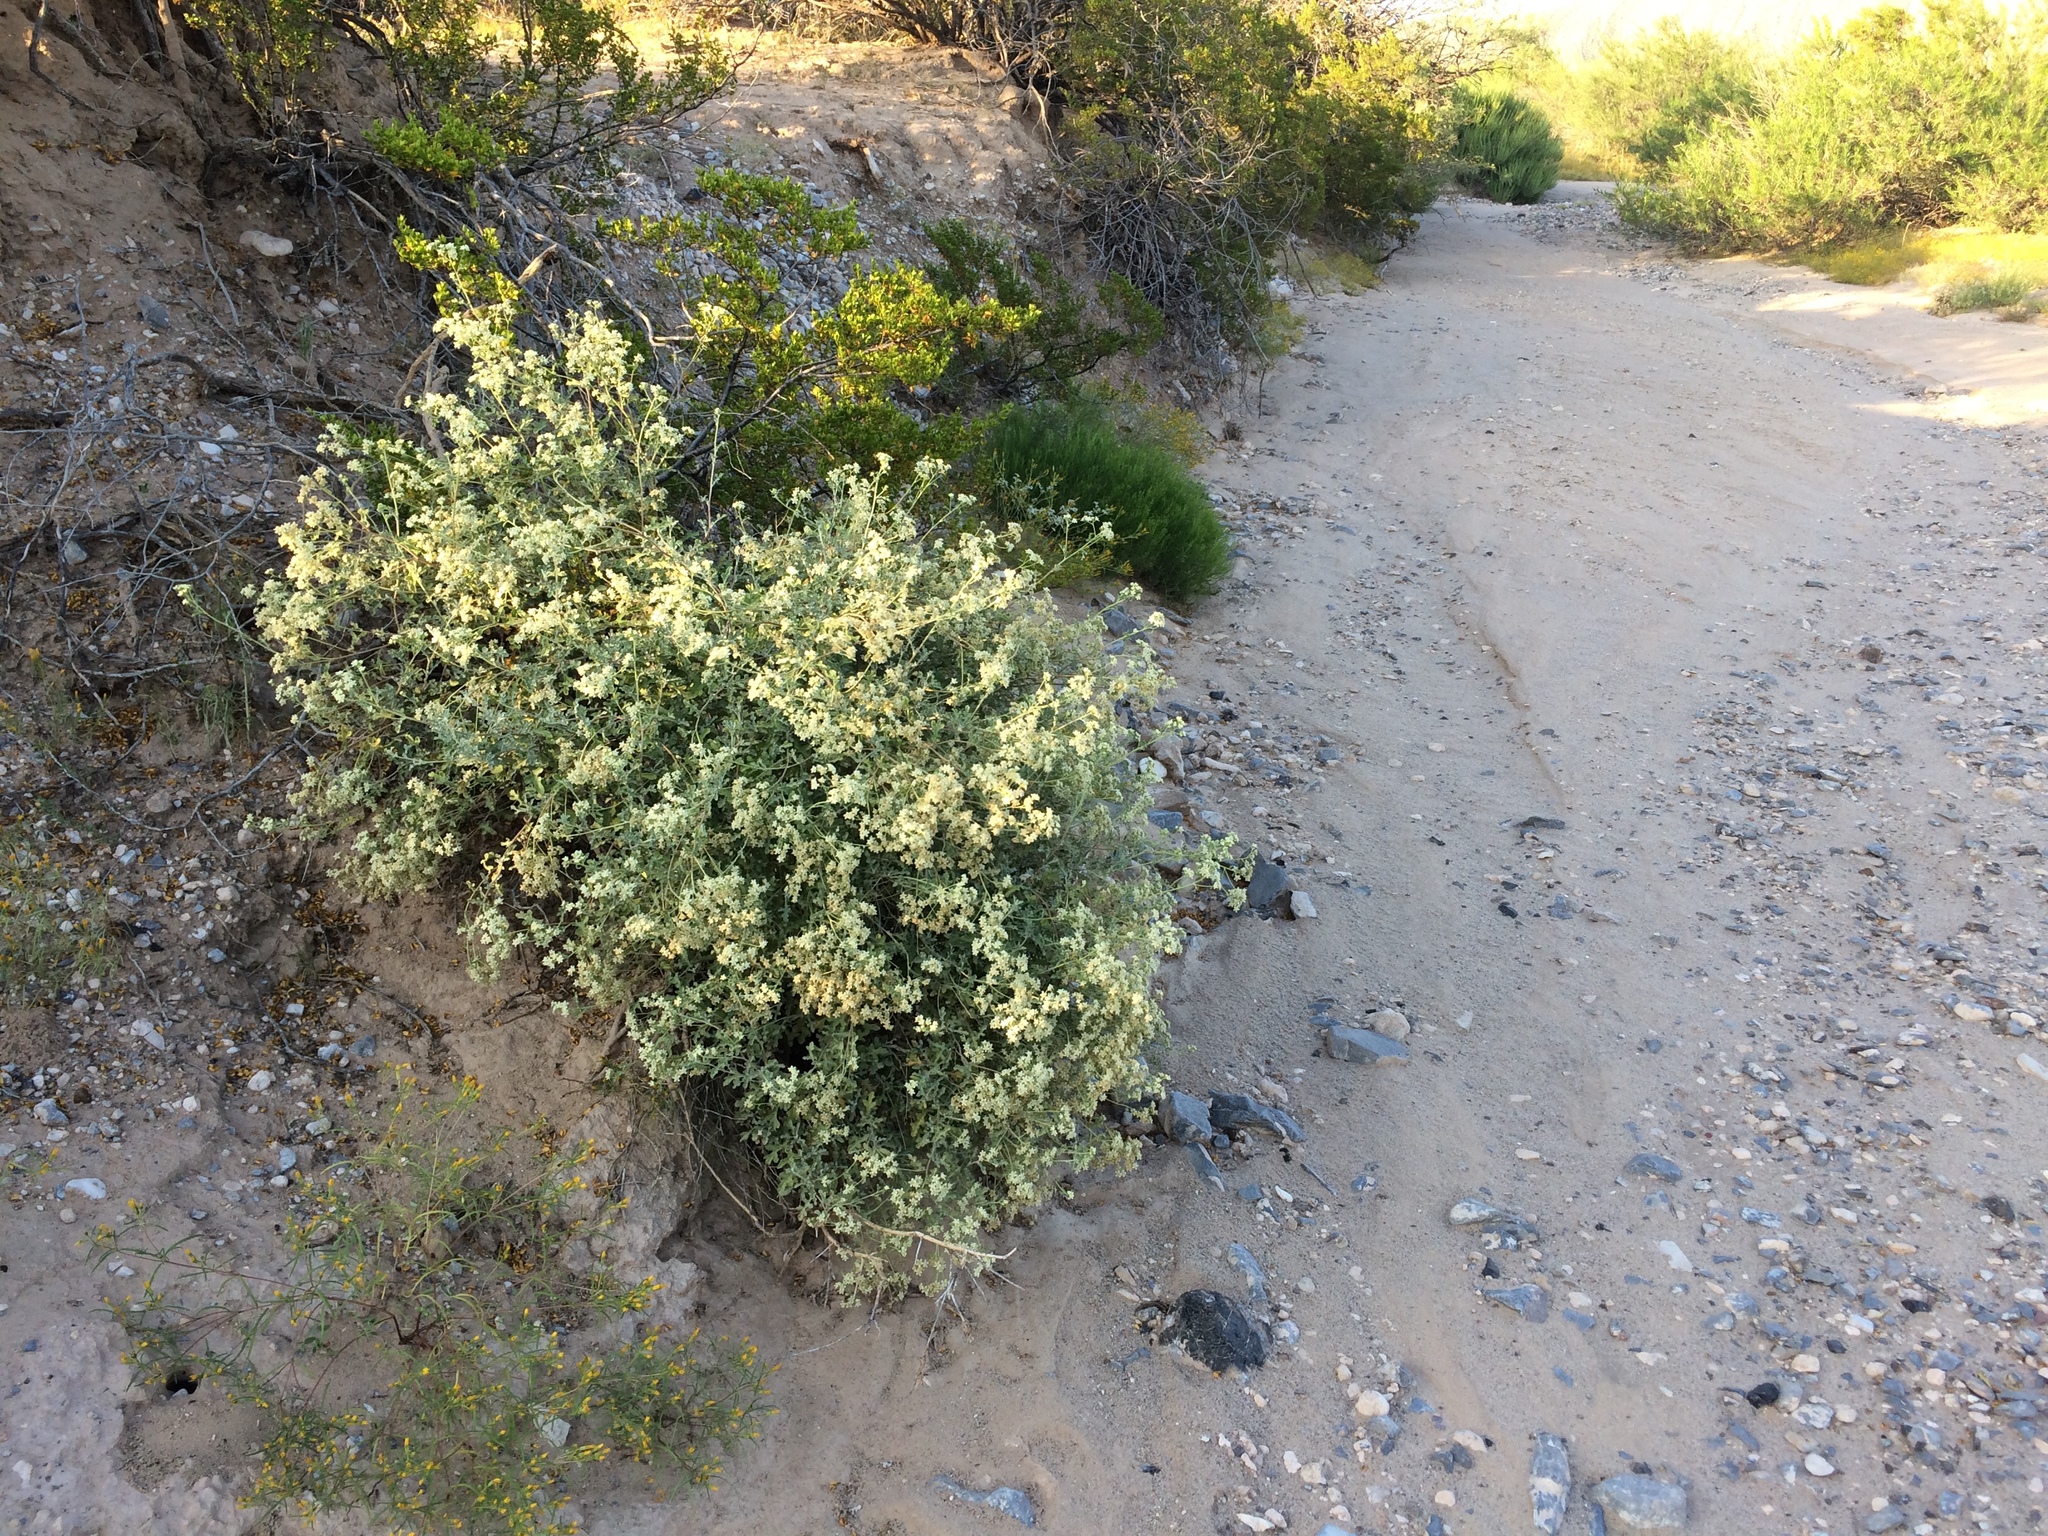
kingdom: Plantae
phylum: Tracheophyta
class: Magnoliopsida
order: Asterales
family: Asteraceae
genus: Parthenium
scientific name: Parthenium incanum
